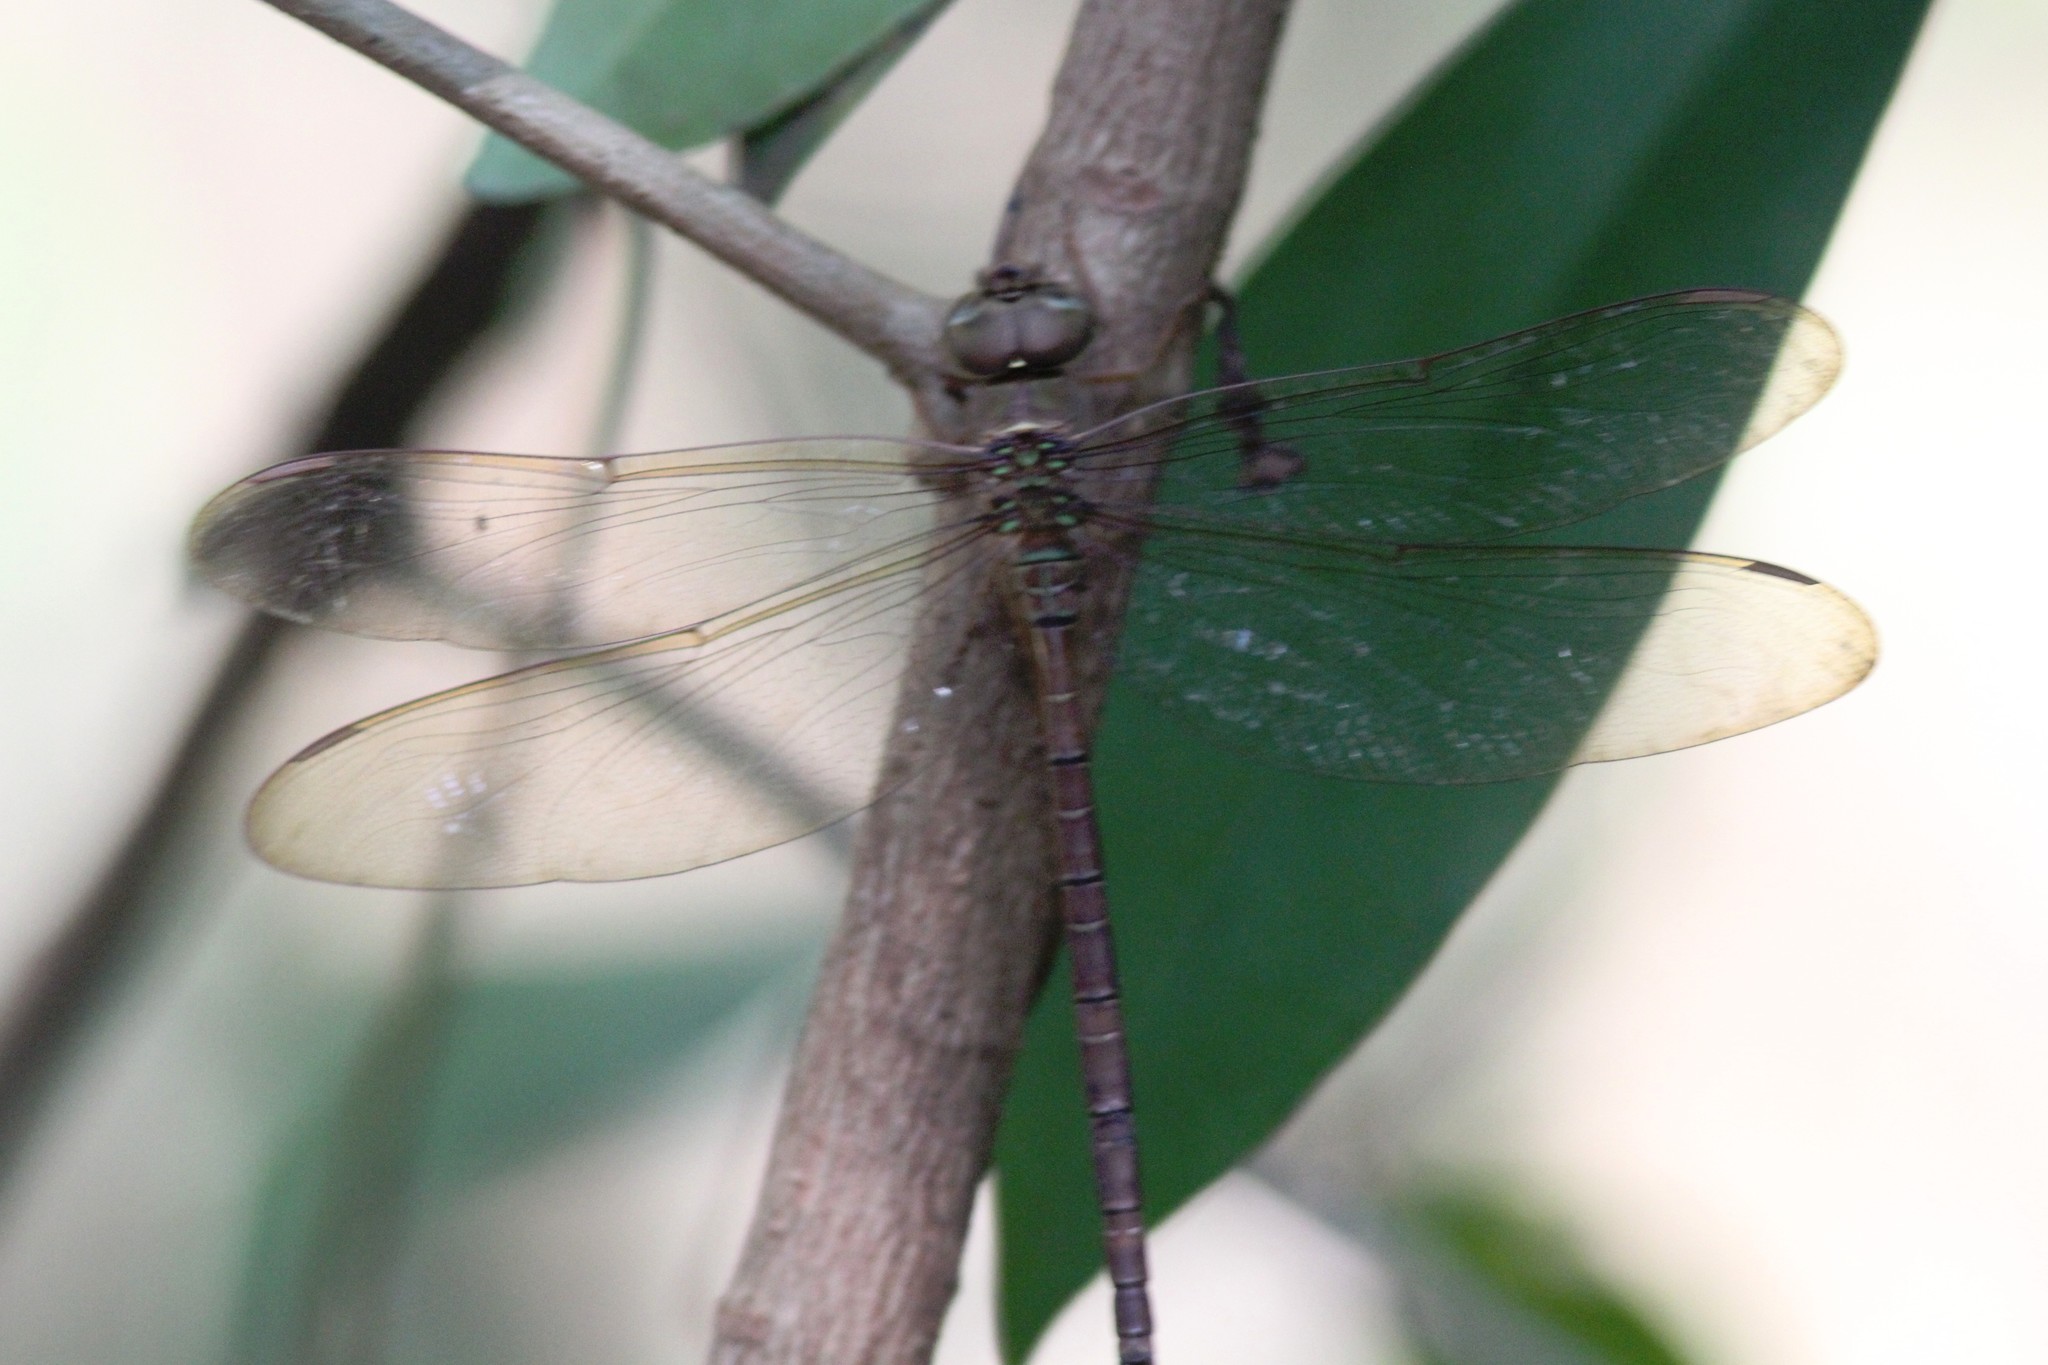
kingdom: Animalia
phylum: Arthropoda
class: Insecta
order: Odonata
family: Aeshnidae
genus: Gynacantha
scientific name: Gynacantha nervosa
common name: Twilight darner
